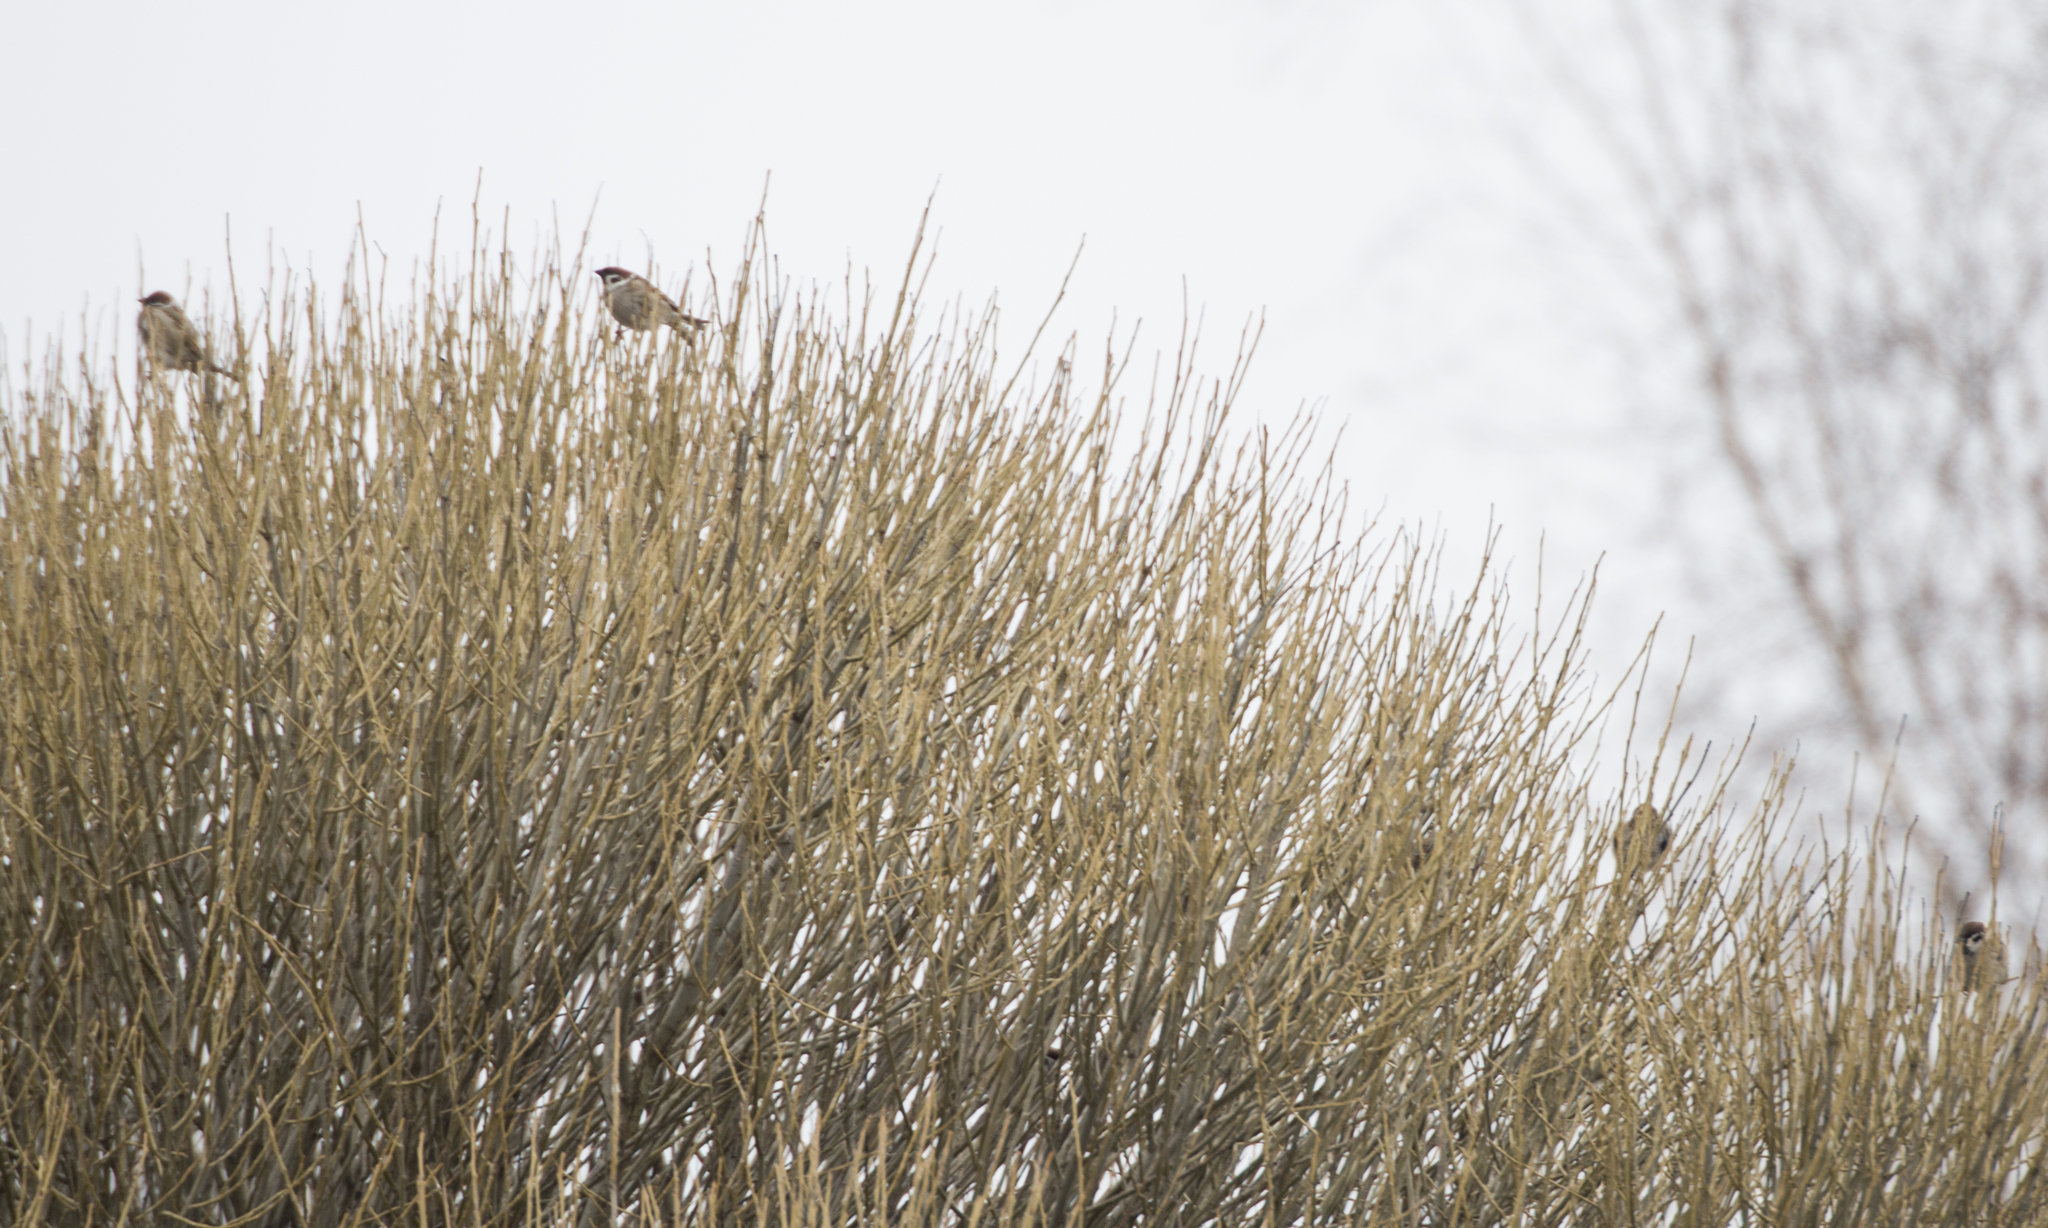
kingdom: Animalia
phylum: Chordata
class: Aves
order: Passeriformes
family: Passeridae
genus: Passer
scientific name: Passer montanus
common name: Eurasian tree sparrow
